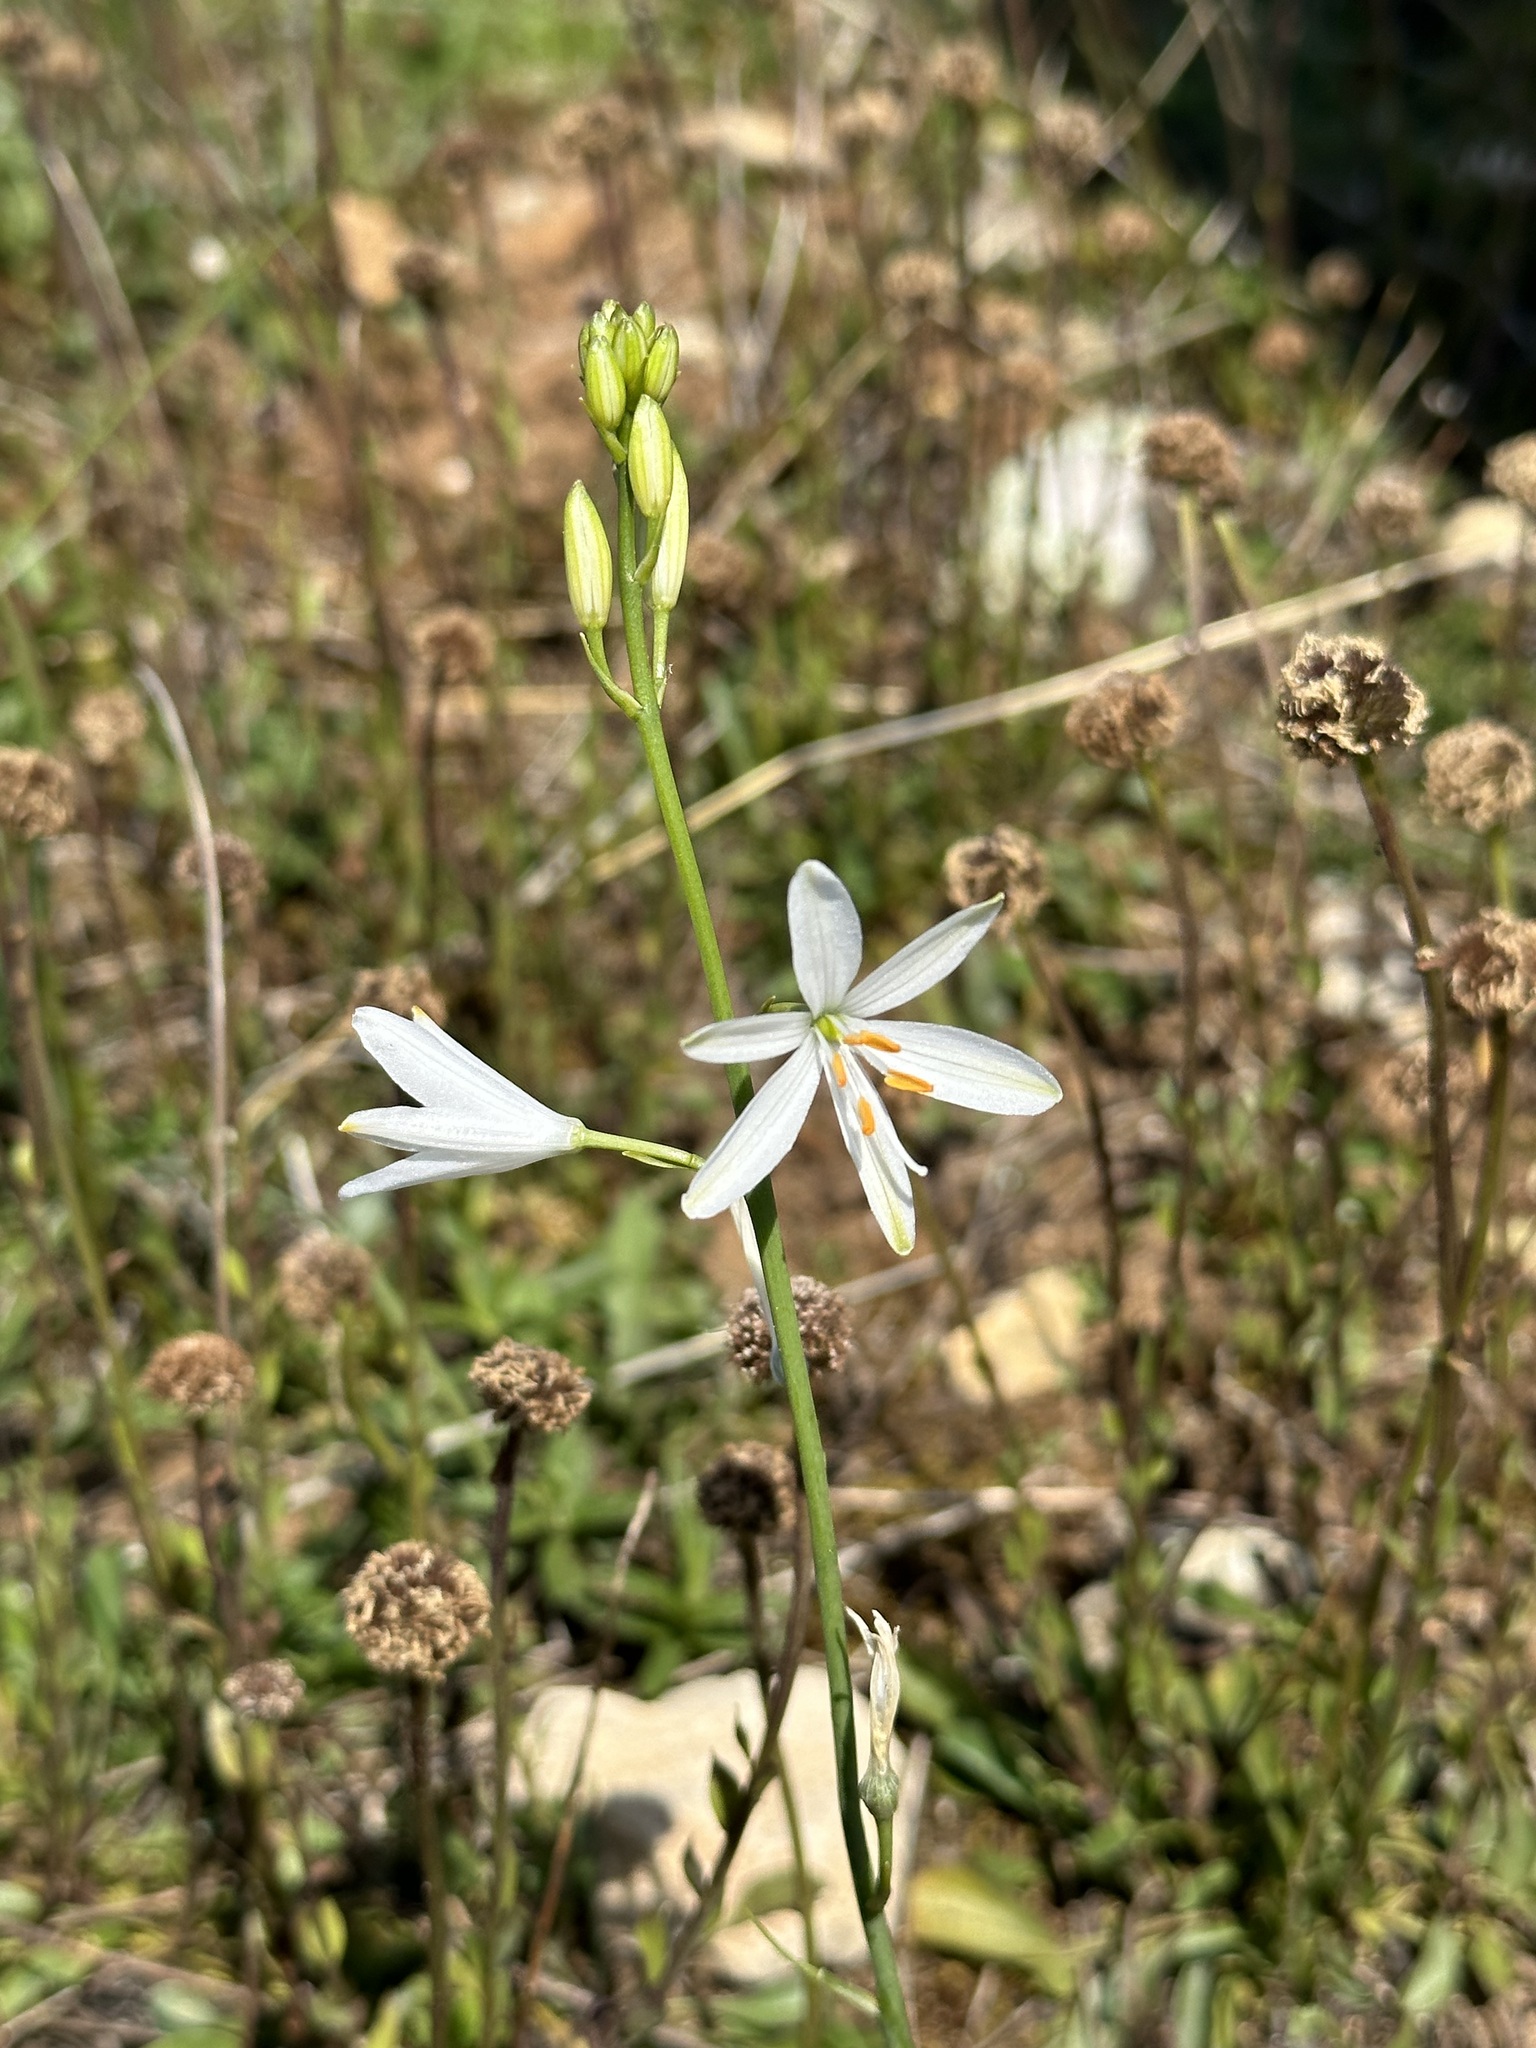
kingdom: Plantae
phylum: Tracheophyta
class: Liliopsida
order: Asparagales
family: Asparagaceae
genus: Anthericum
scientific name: Anthericum liliago
